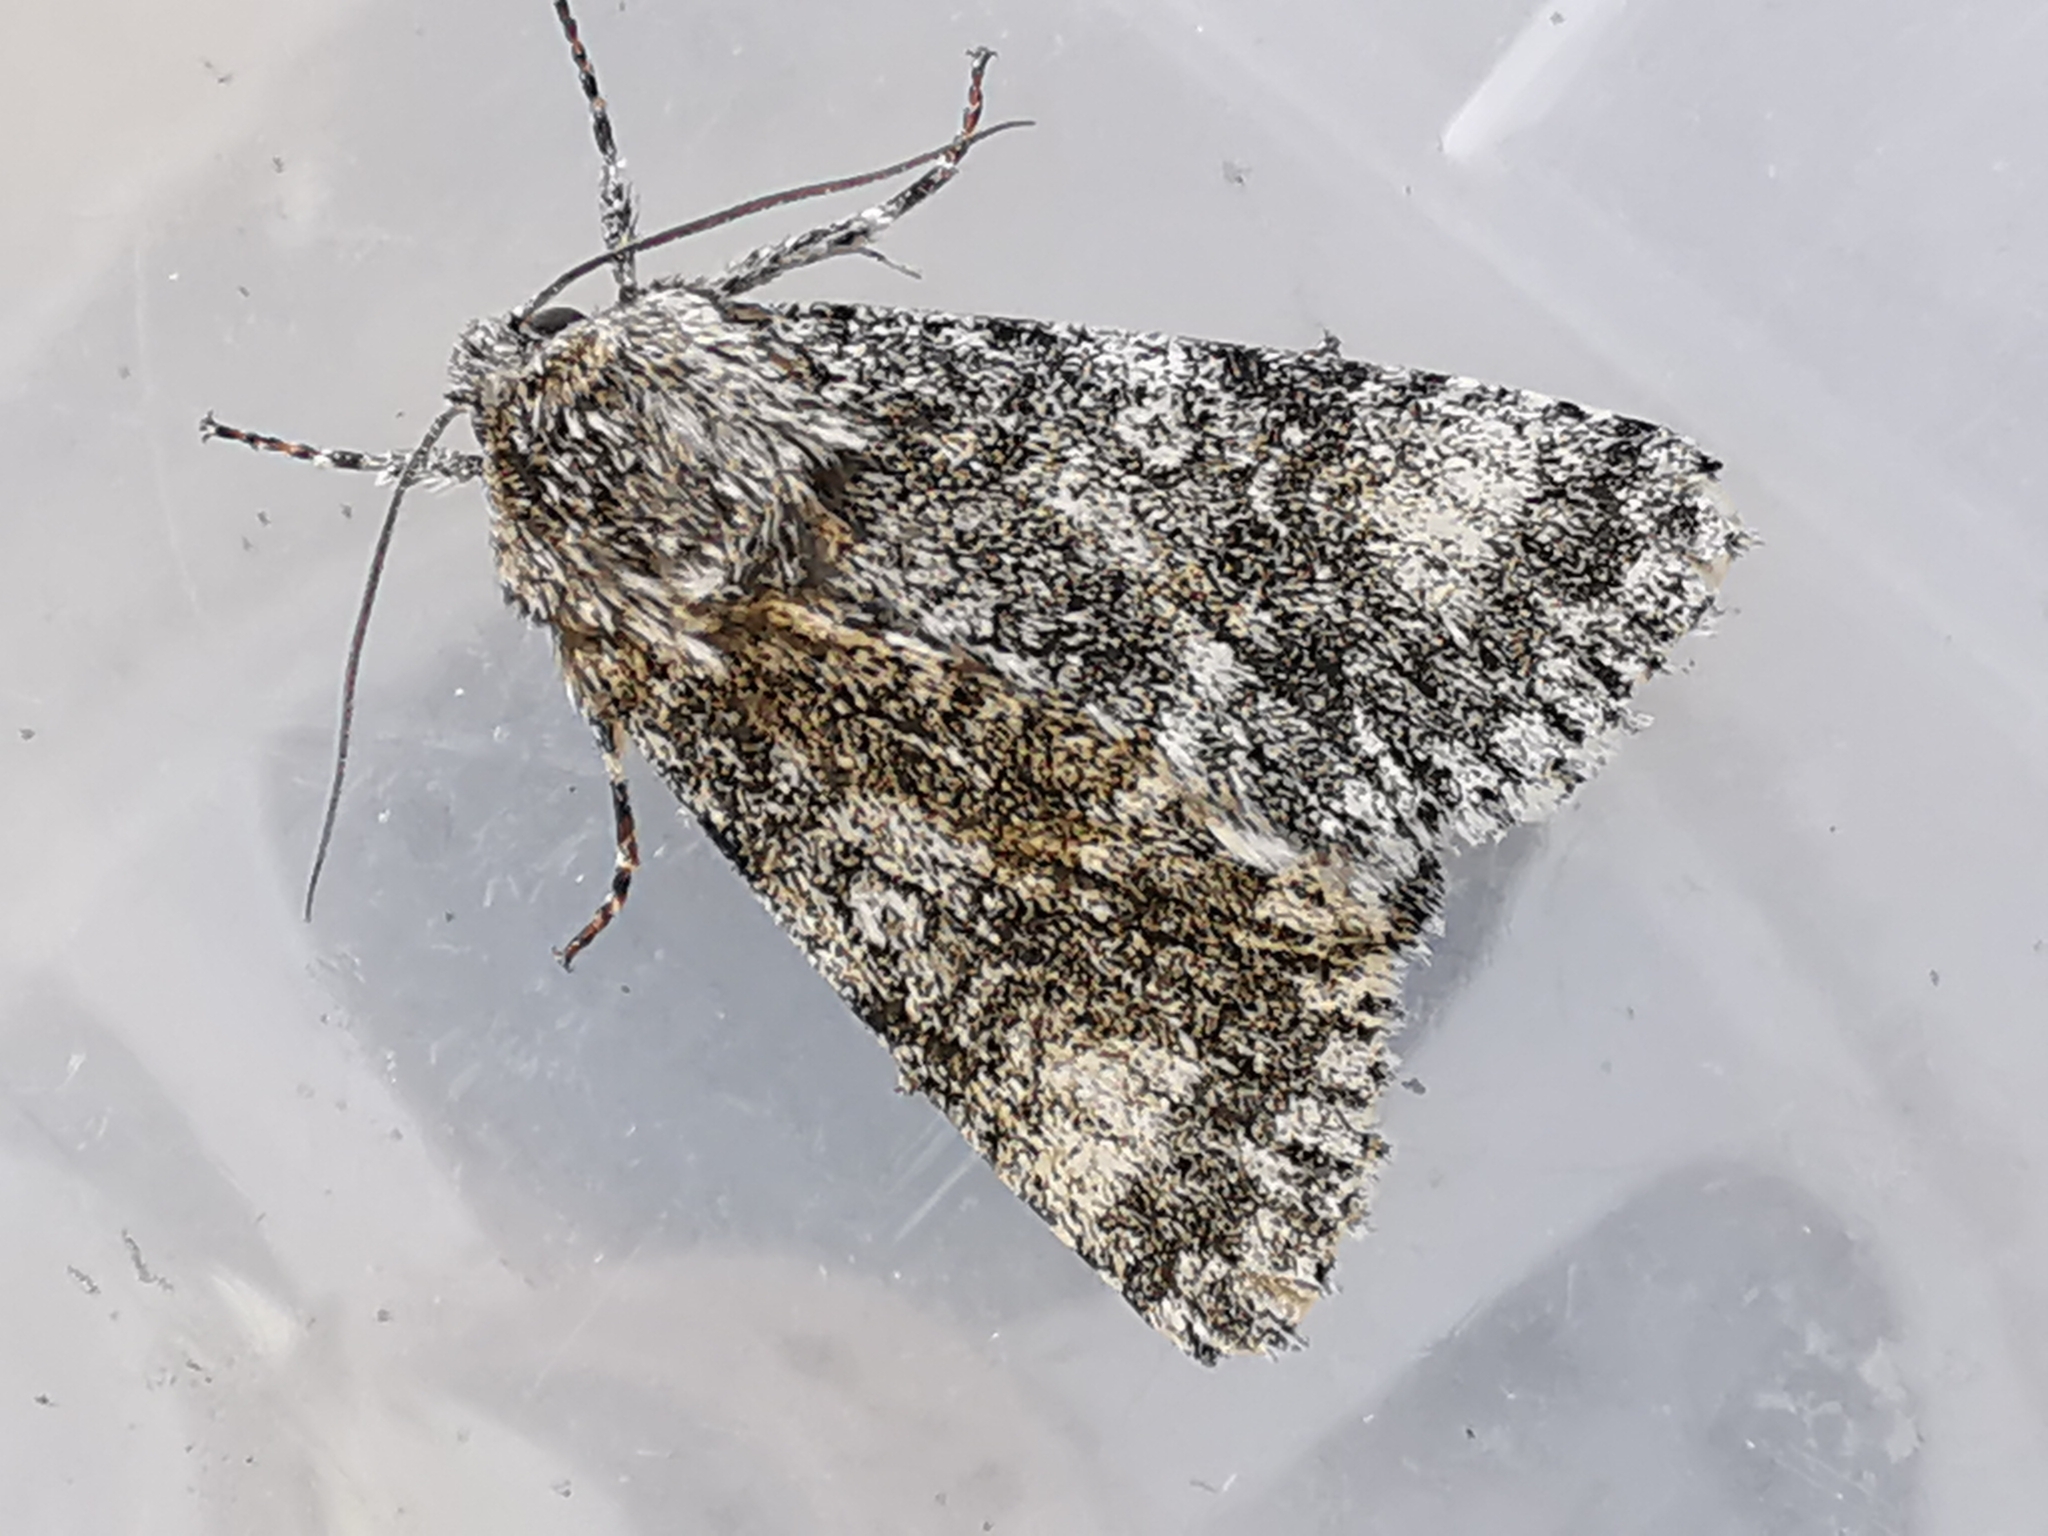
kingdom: Animalia
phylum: Arthropoda
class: Insecta
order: Lepidoptera
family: Noctuidae
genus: Acronicta
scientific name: Acronicta megacephala
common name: Poplar grey
